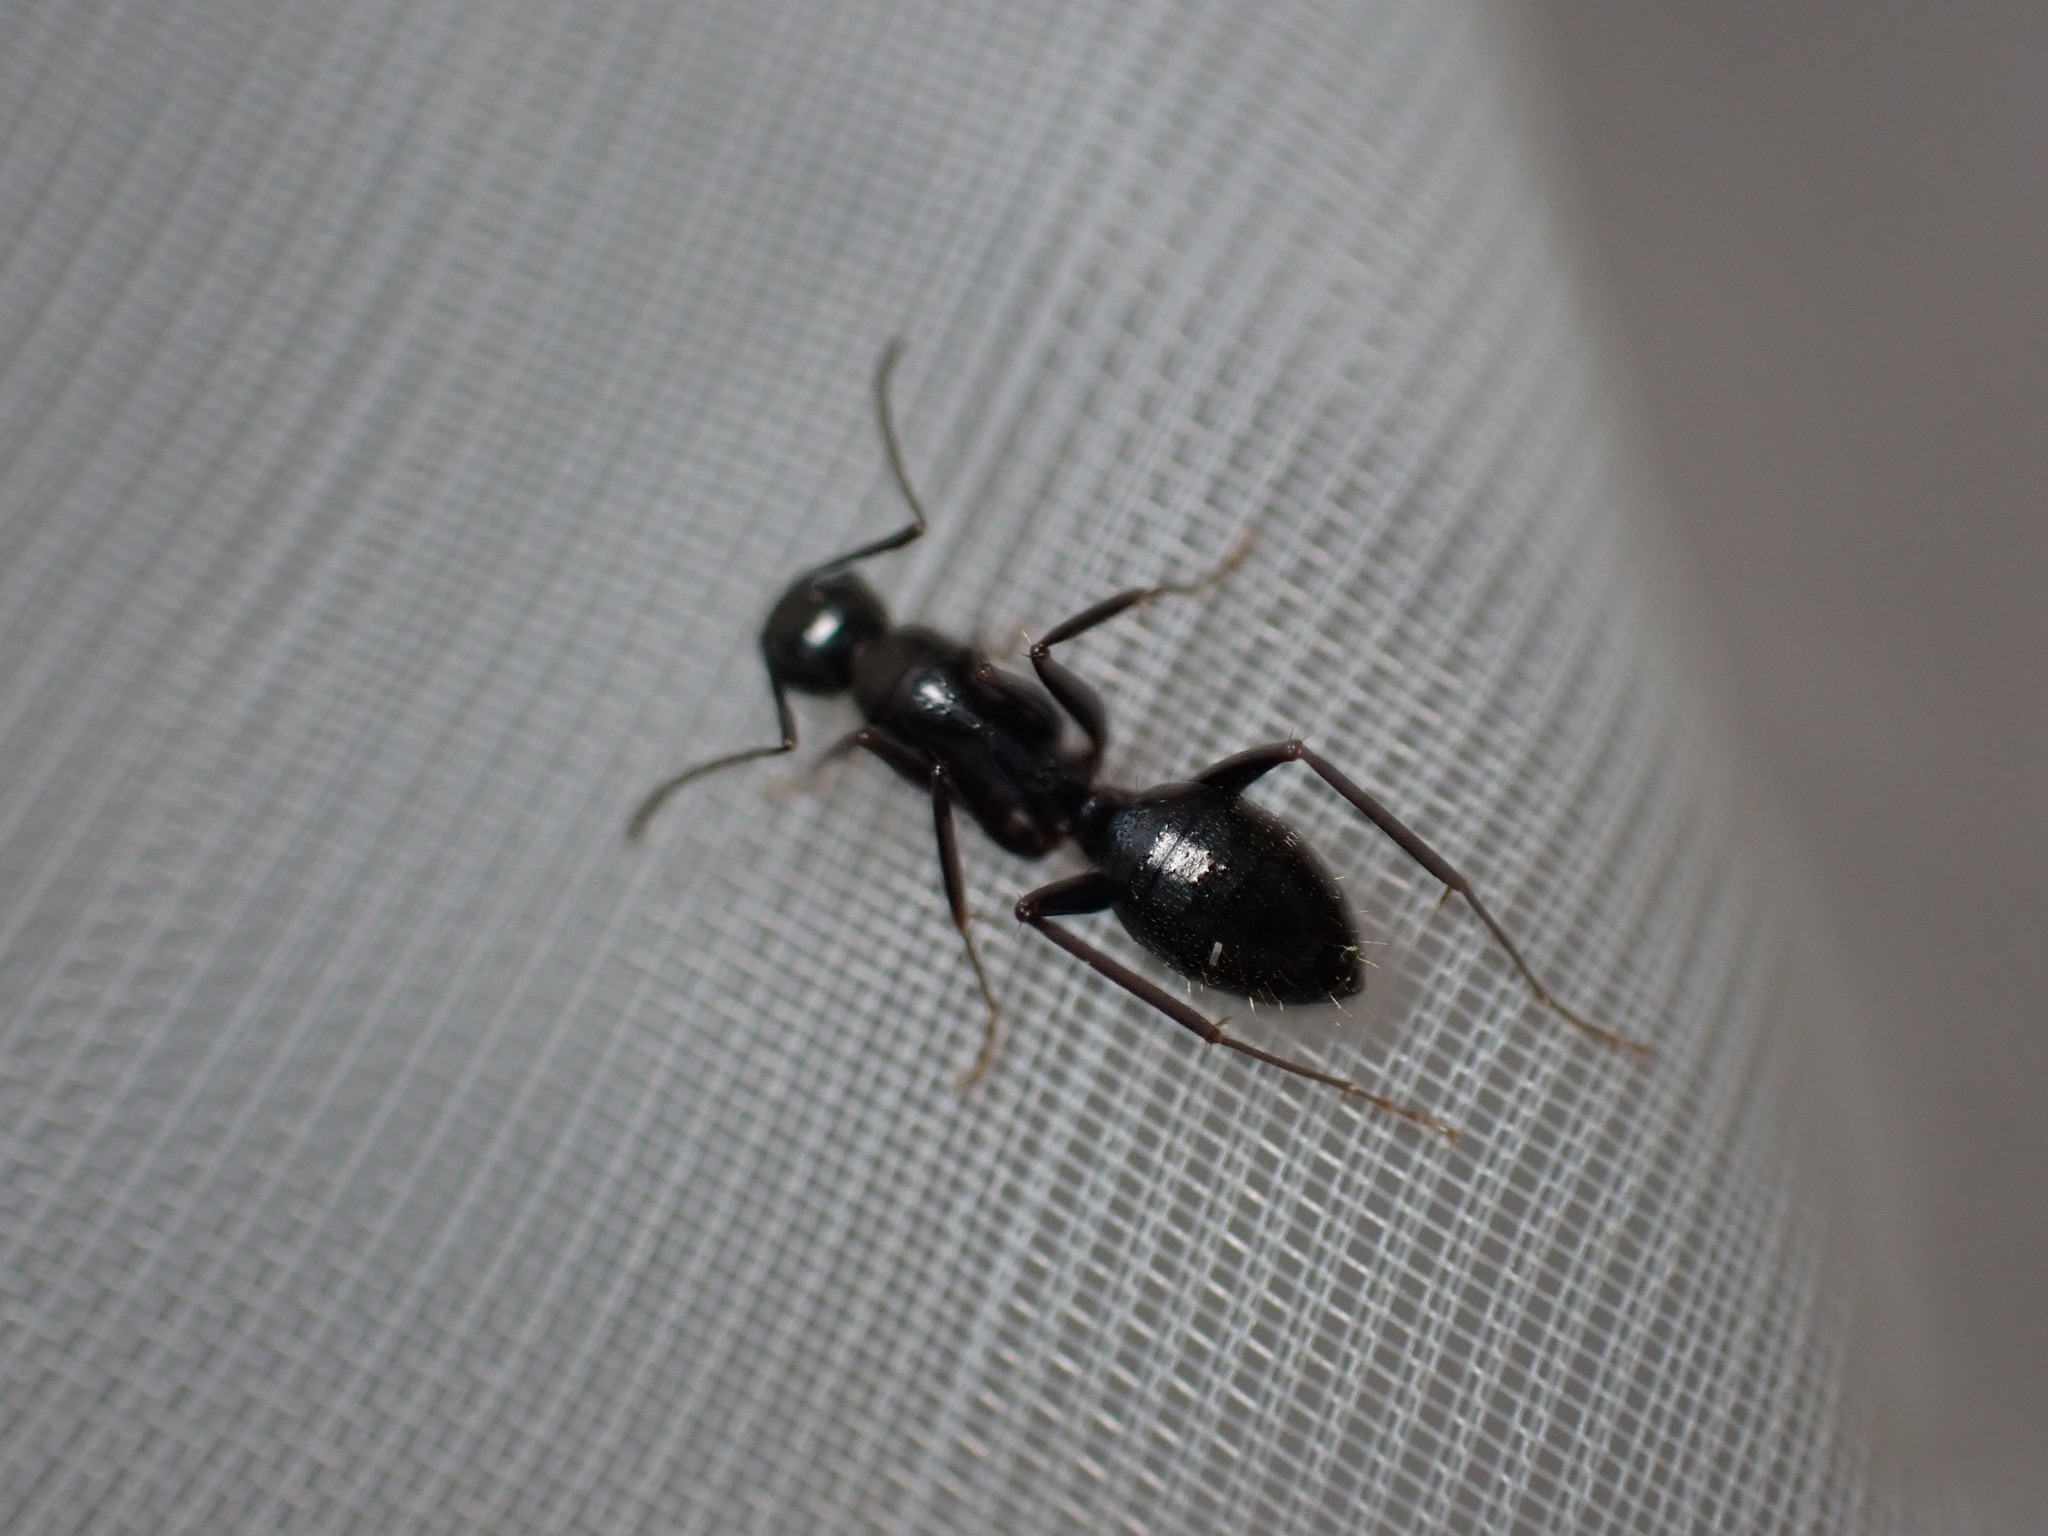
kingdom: Animalia
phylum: Arthropoda
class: Insecta
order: Hymenoptera
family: Formicidae
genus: Camponotus
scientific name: Camponotus aethiops
